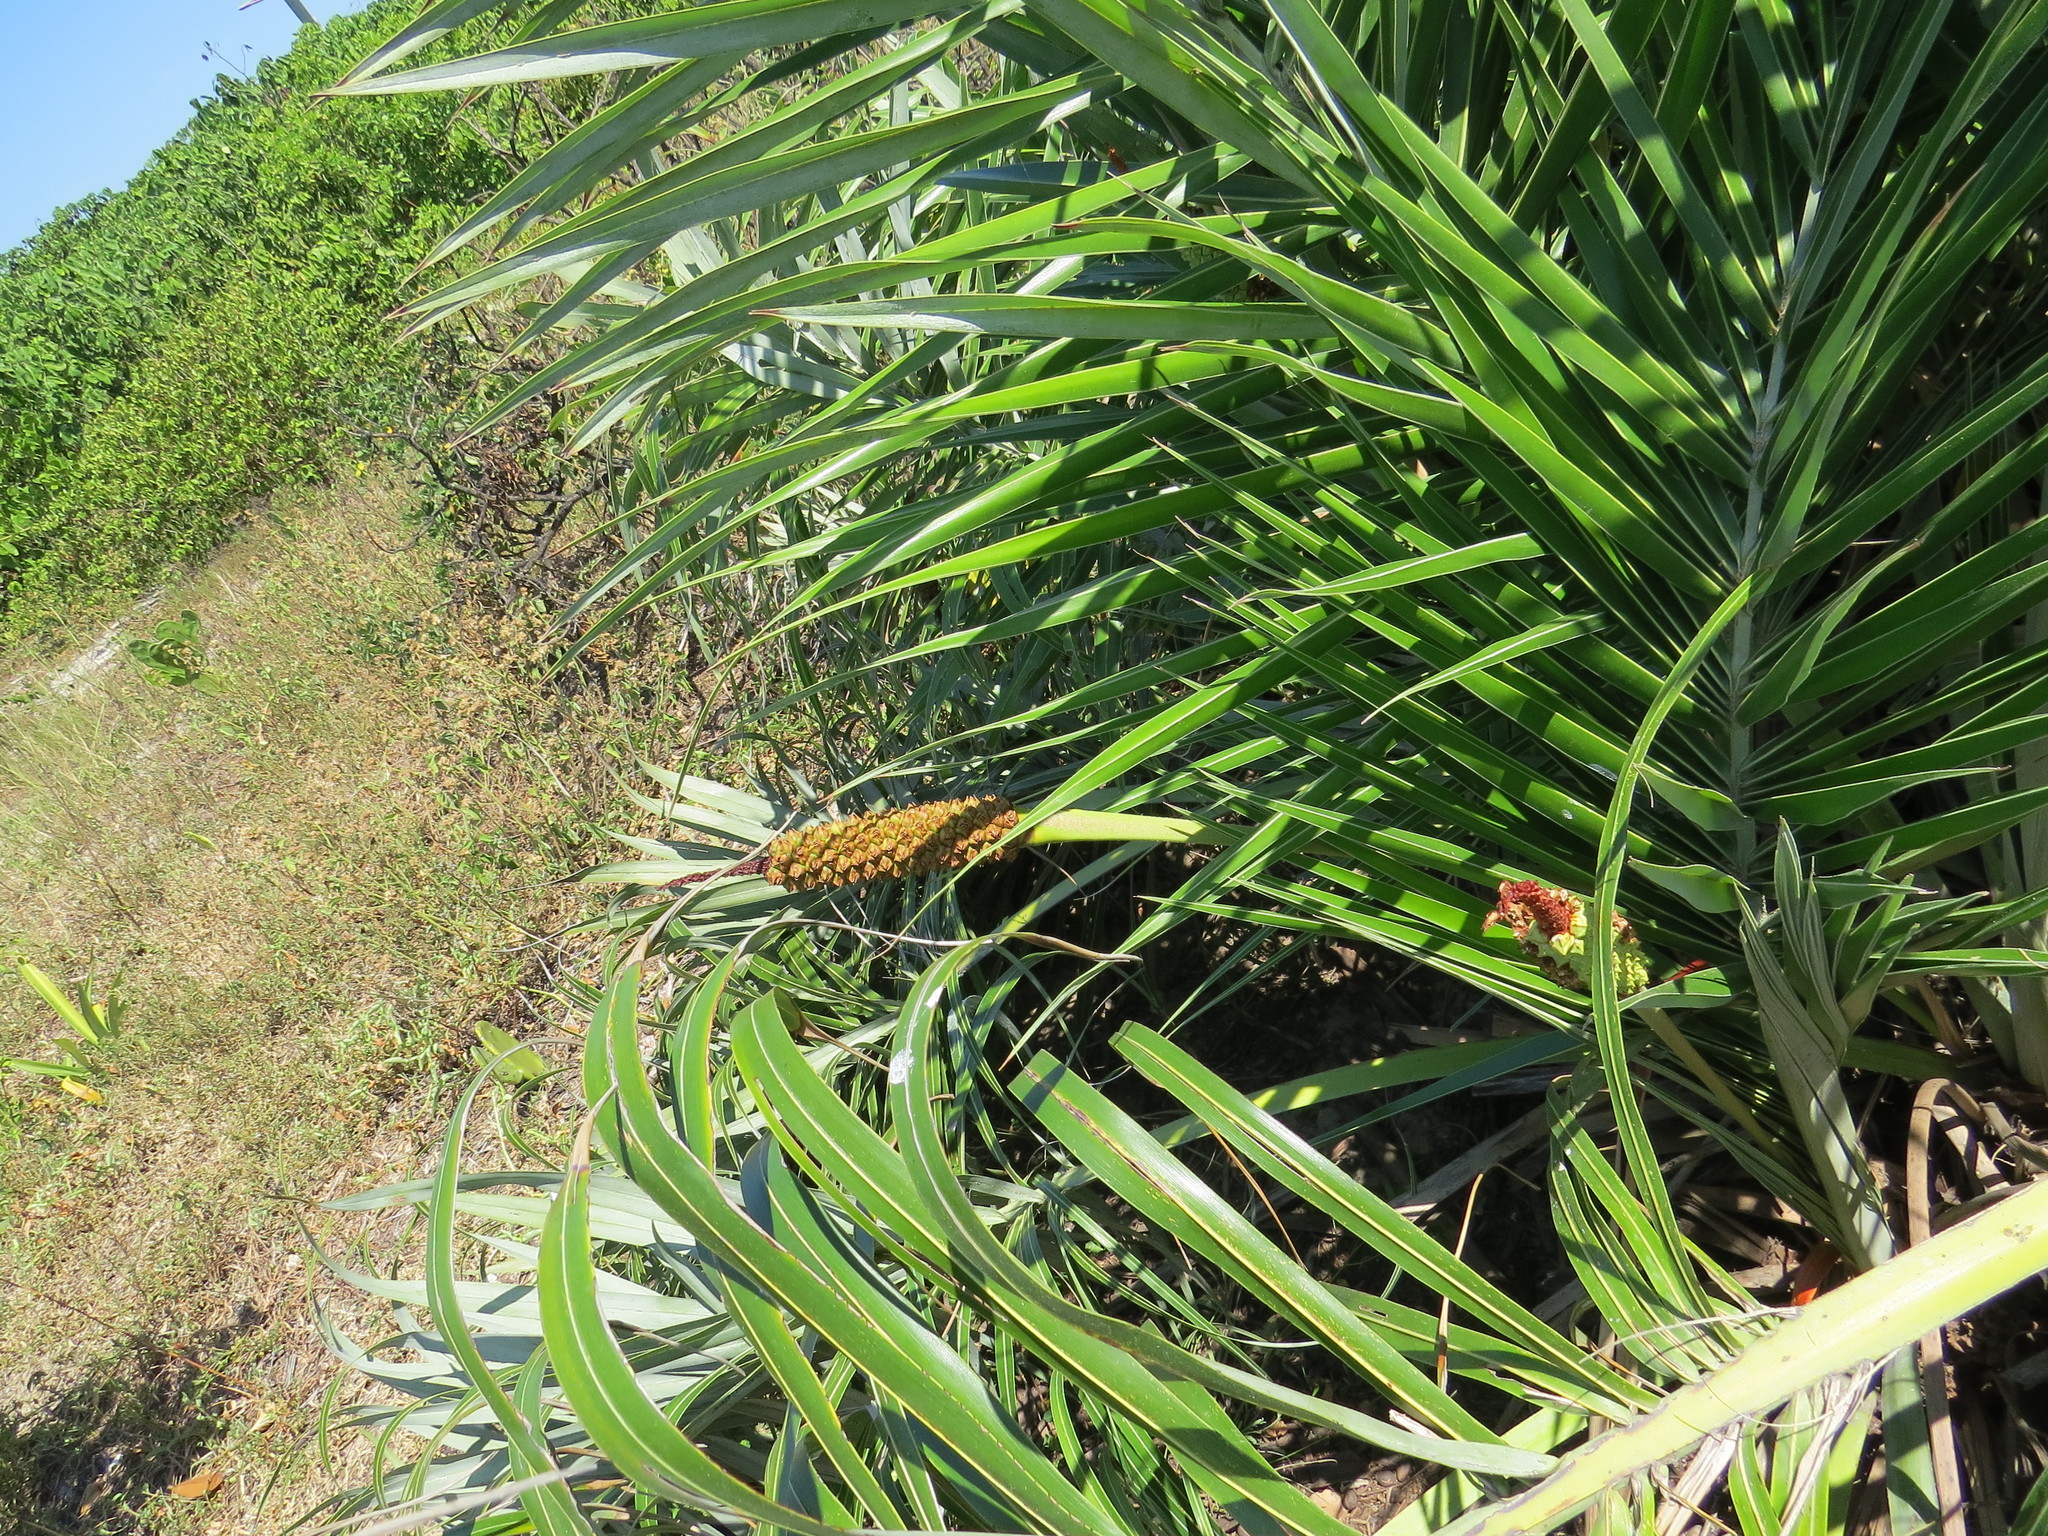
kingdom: Plantae
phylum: Tracheophyta
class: Liliopsida
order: Arecales
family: Arecaceae
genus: Allagoptera
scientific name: Allagoptera arenaria
